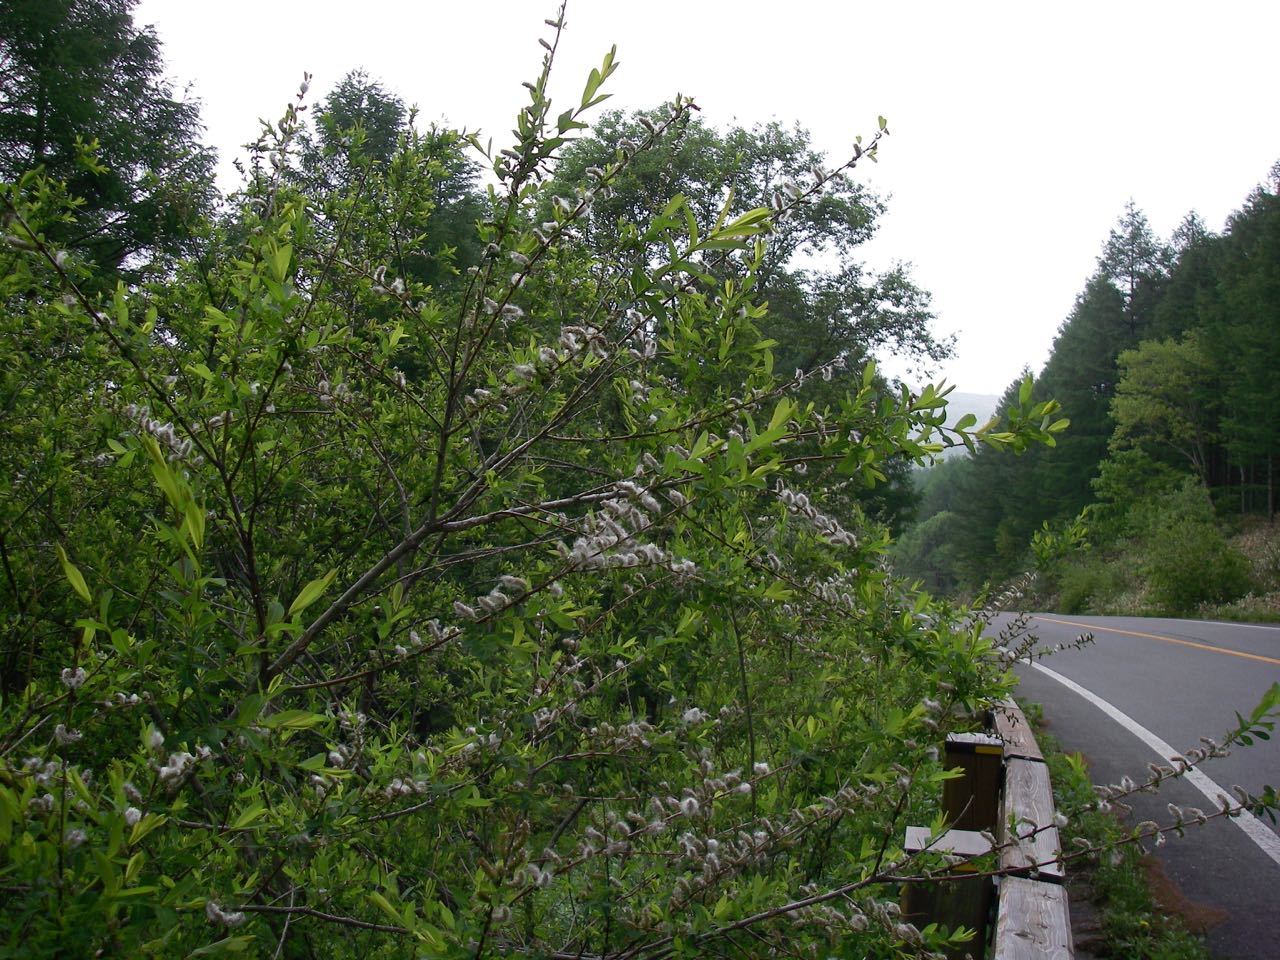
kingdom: Plantae
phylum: Tracheophyta
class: Magnoliopsida
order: Malpighiales
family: Salicaceae
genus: Salix
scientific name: Salix integra
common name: Dappled willow
